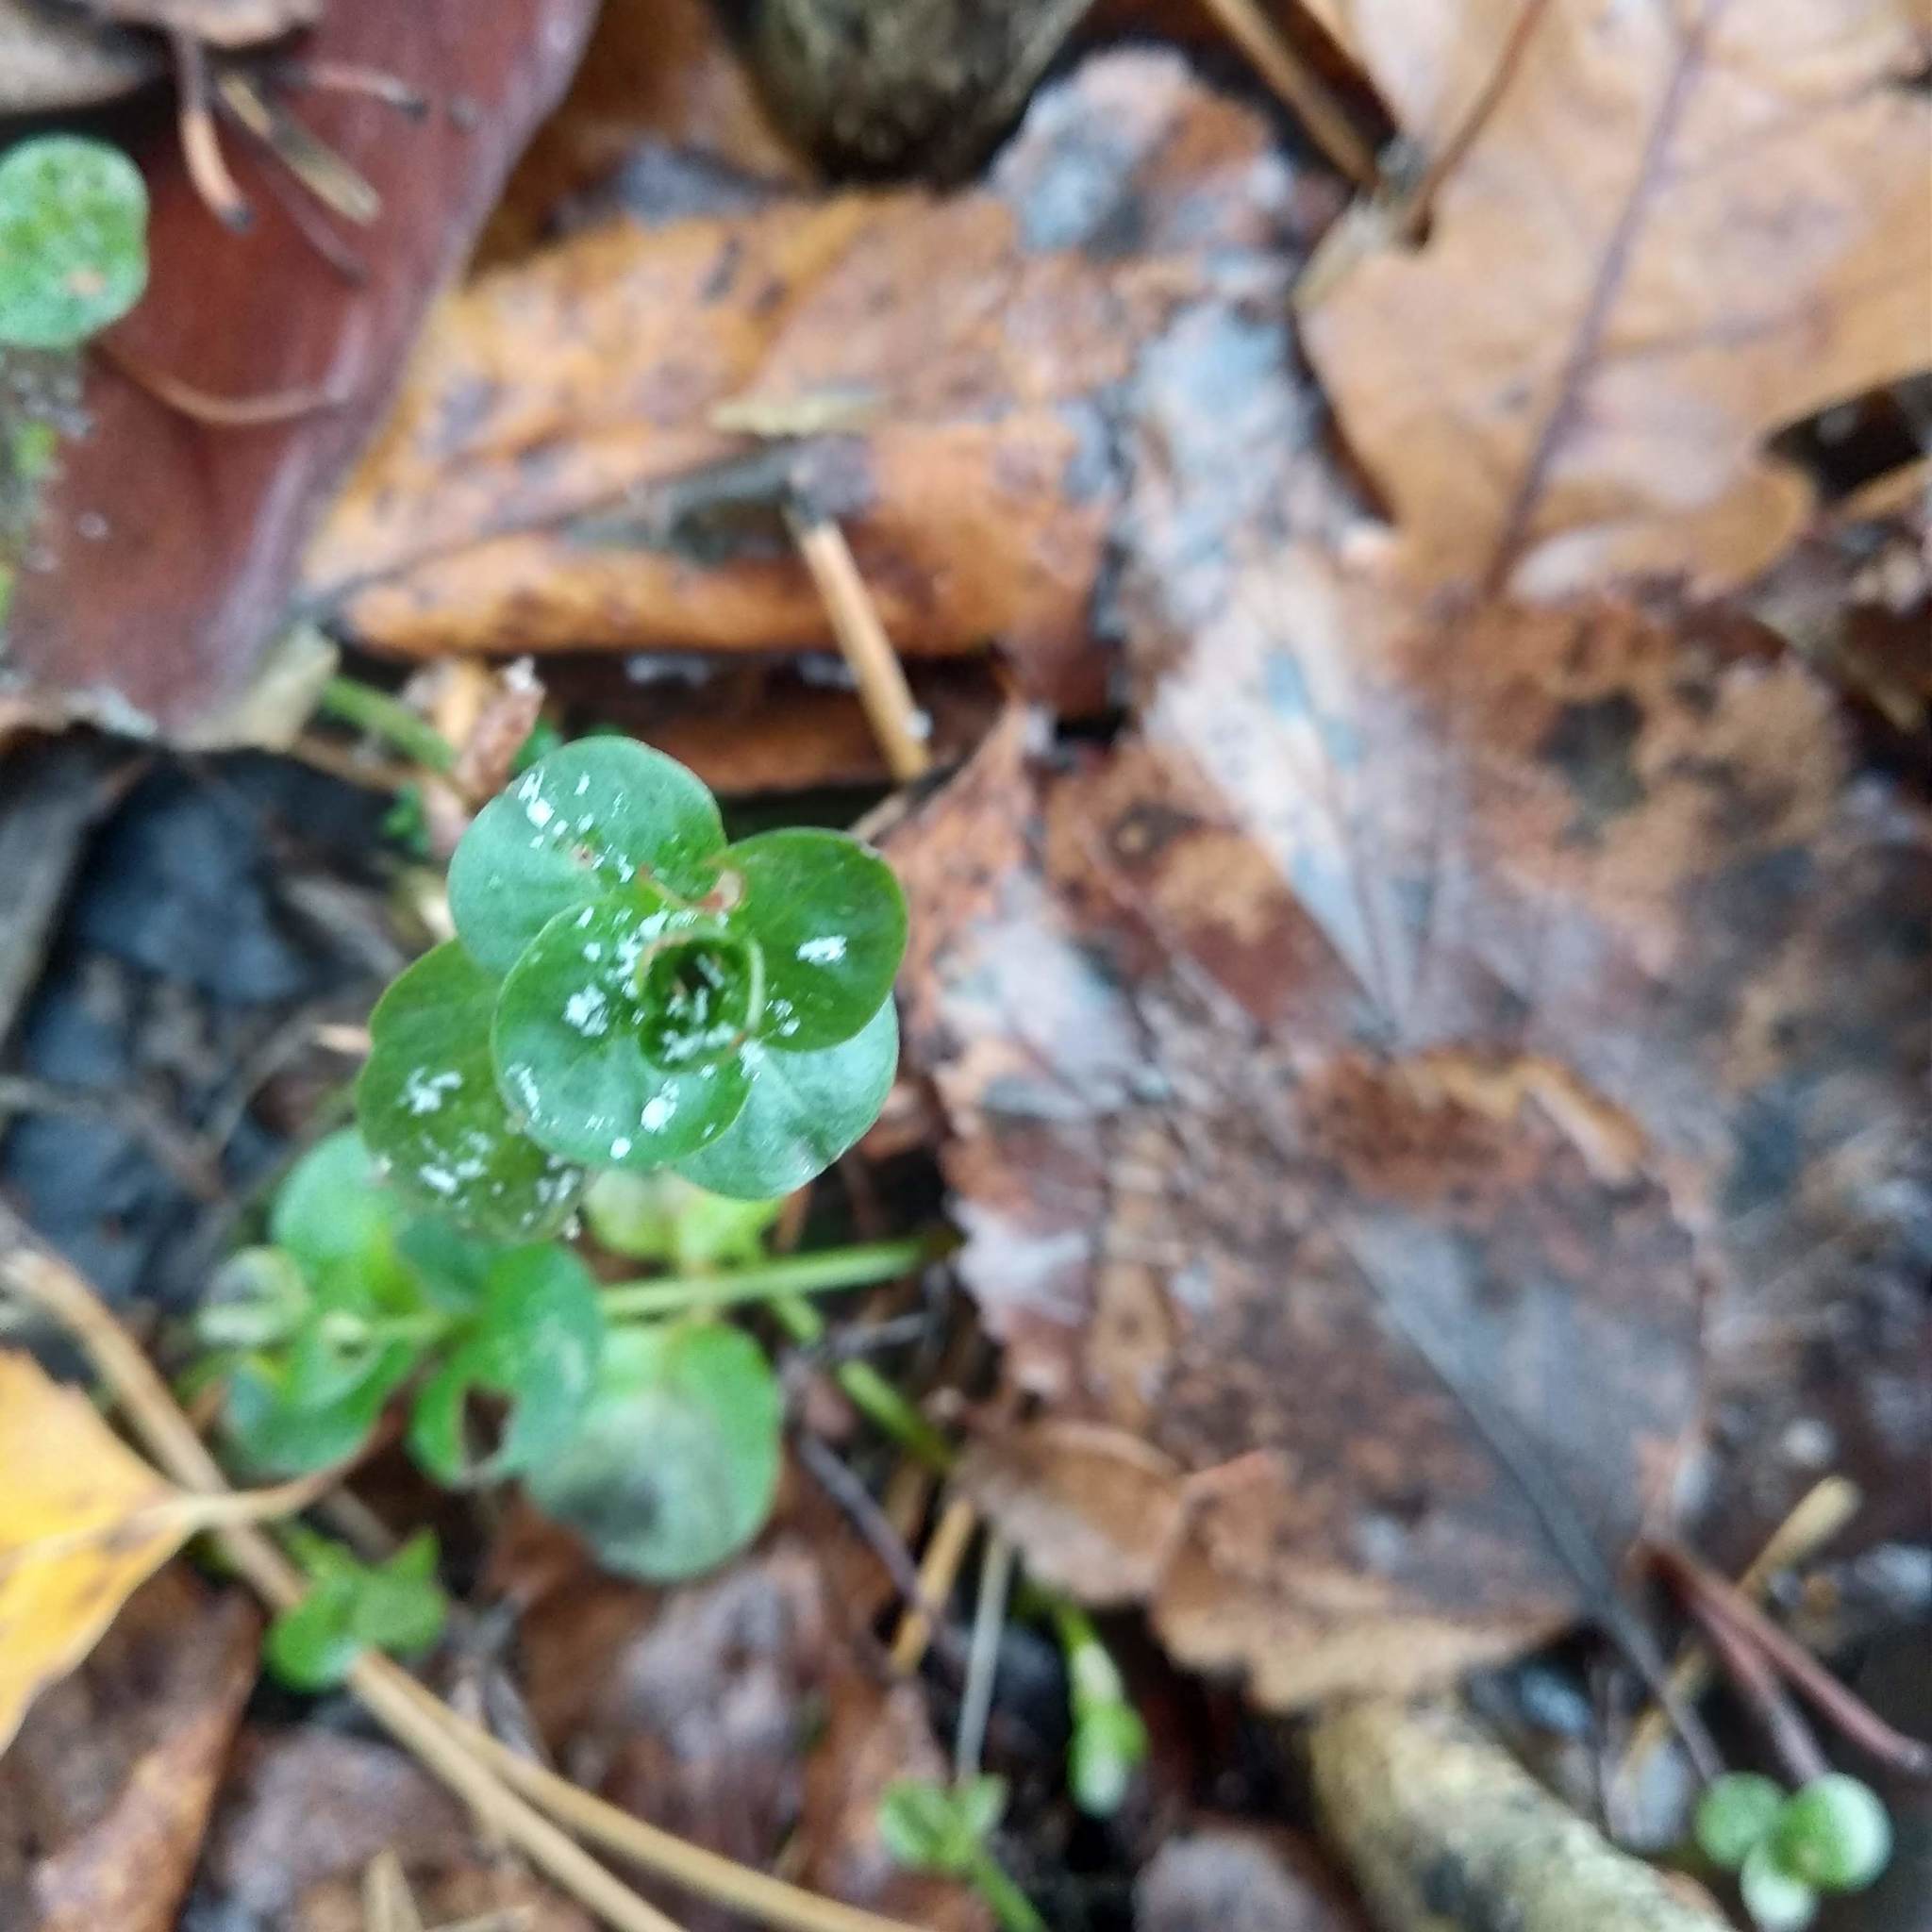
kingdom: Plantae
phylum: Tracheophyta
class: Magnoliopsida
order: Ericales
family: Primulaceae
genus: Lysimachia
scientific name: Lysimachia nummularia
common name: Moneywort
